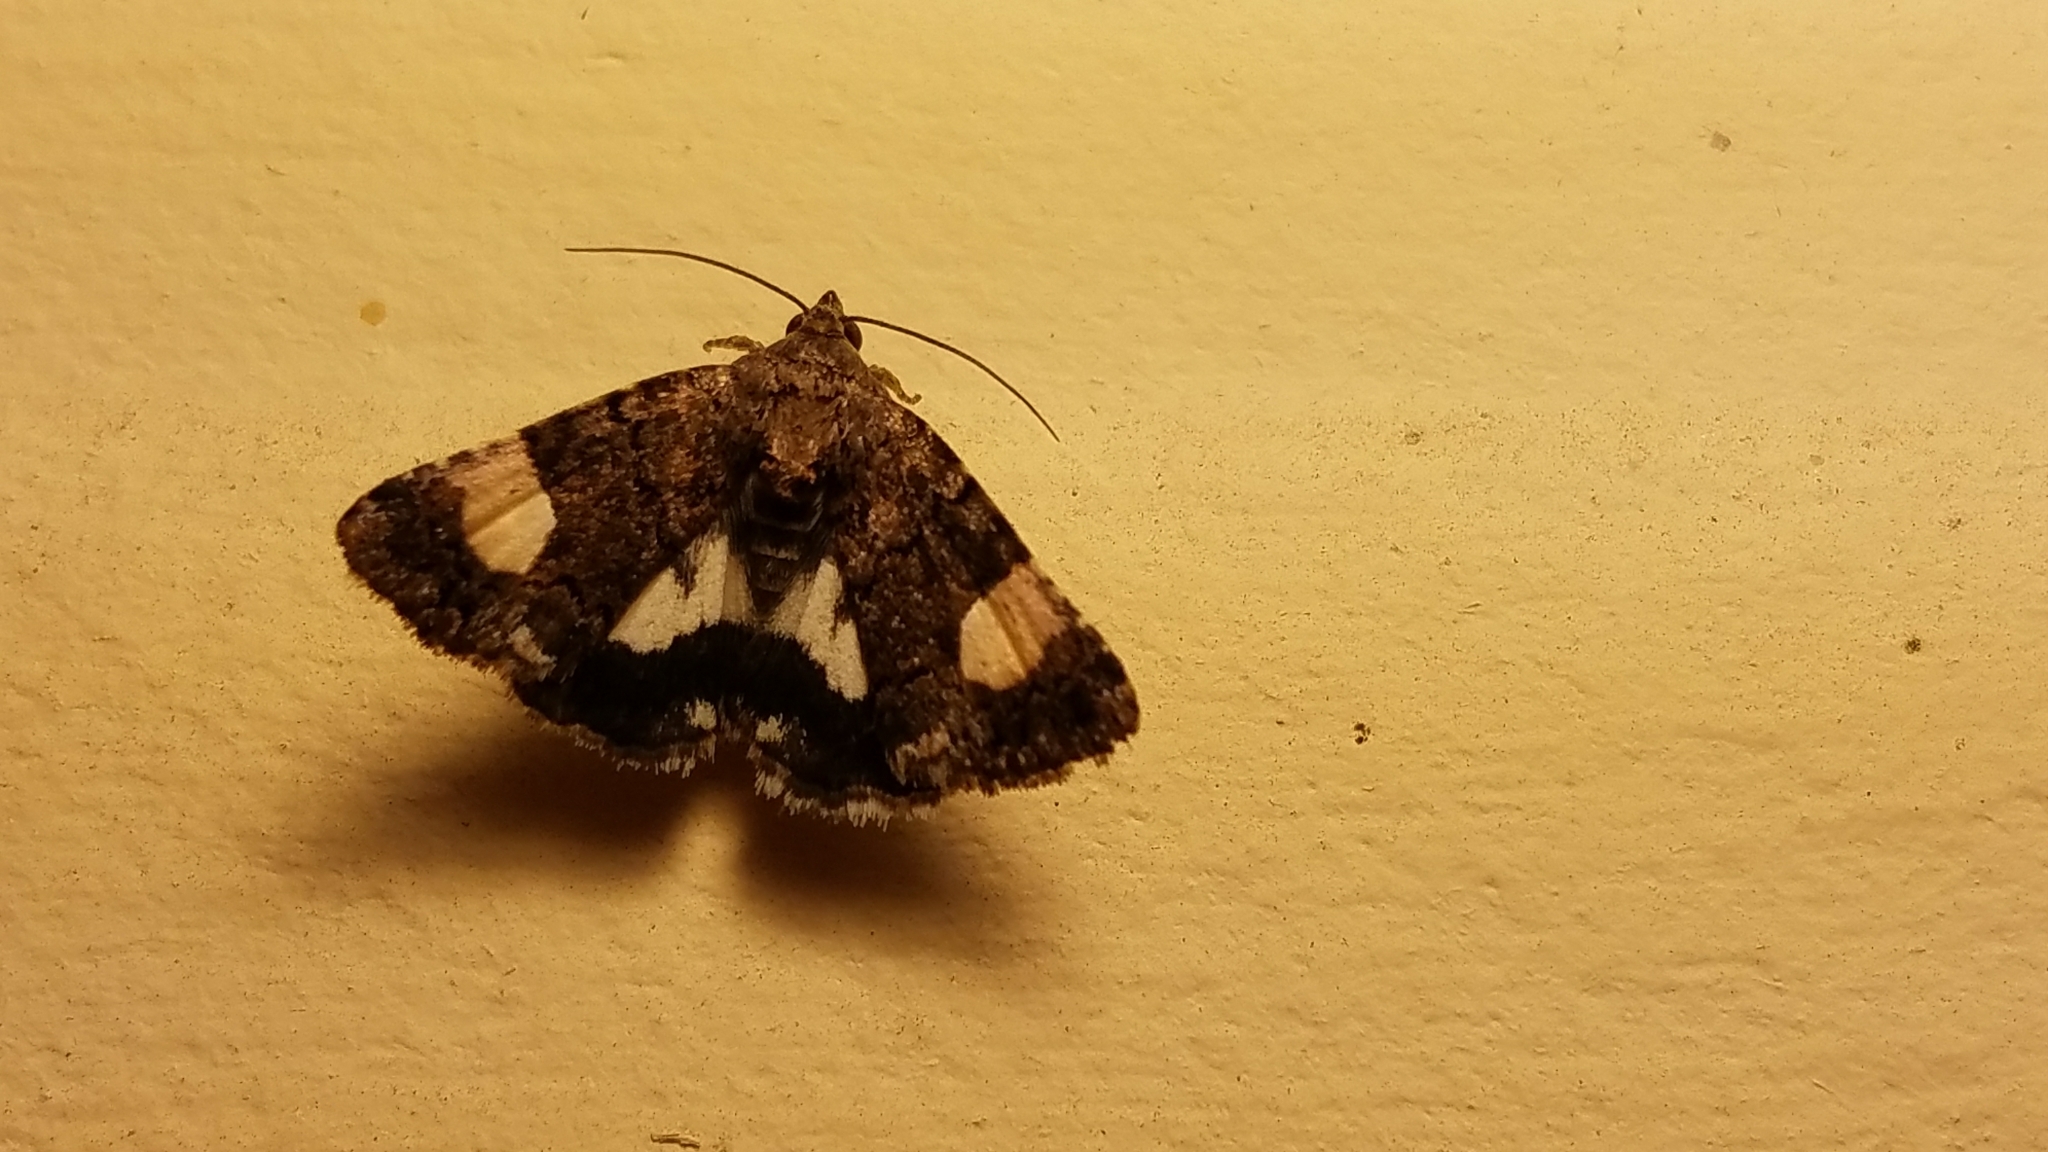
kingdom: Animalia
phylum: Arthropoda
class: Insecta
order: Lepidoptera
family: Erebidae
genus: Tyta
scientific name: Tyta luctuosa
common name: Four-spotted
